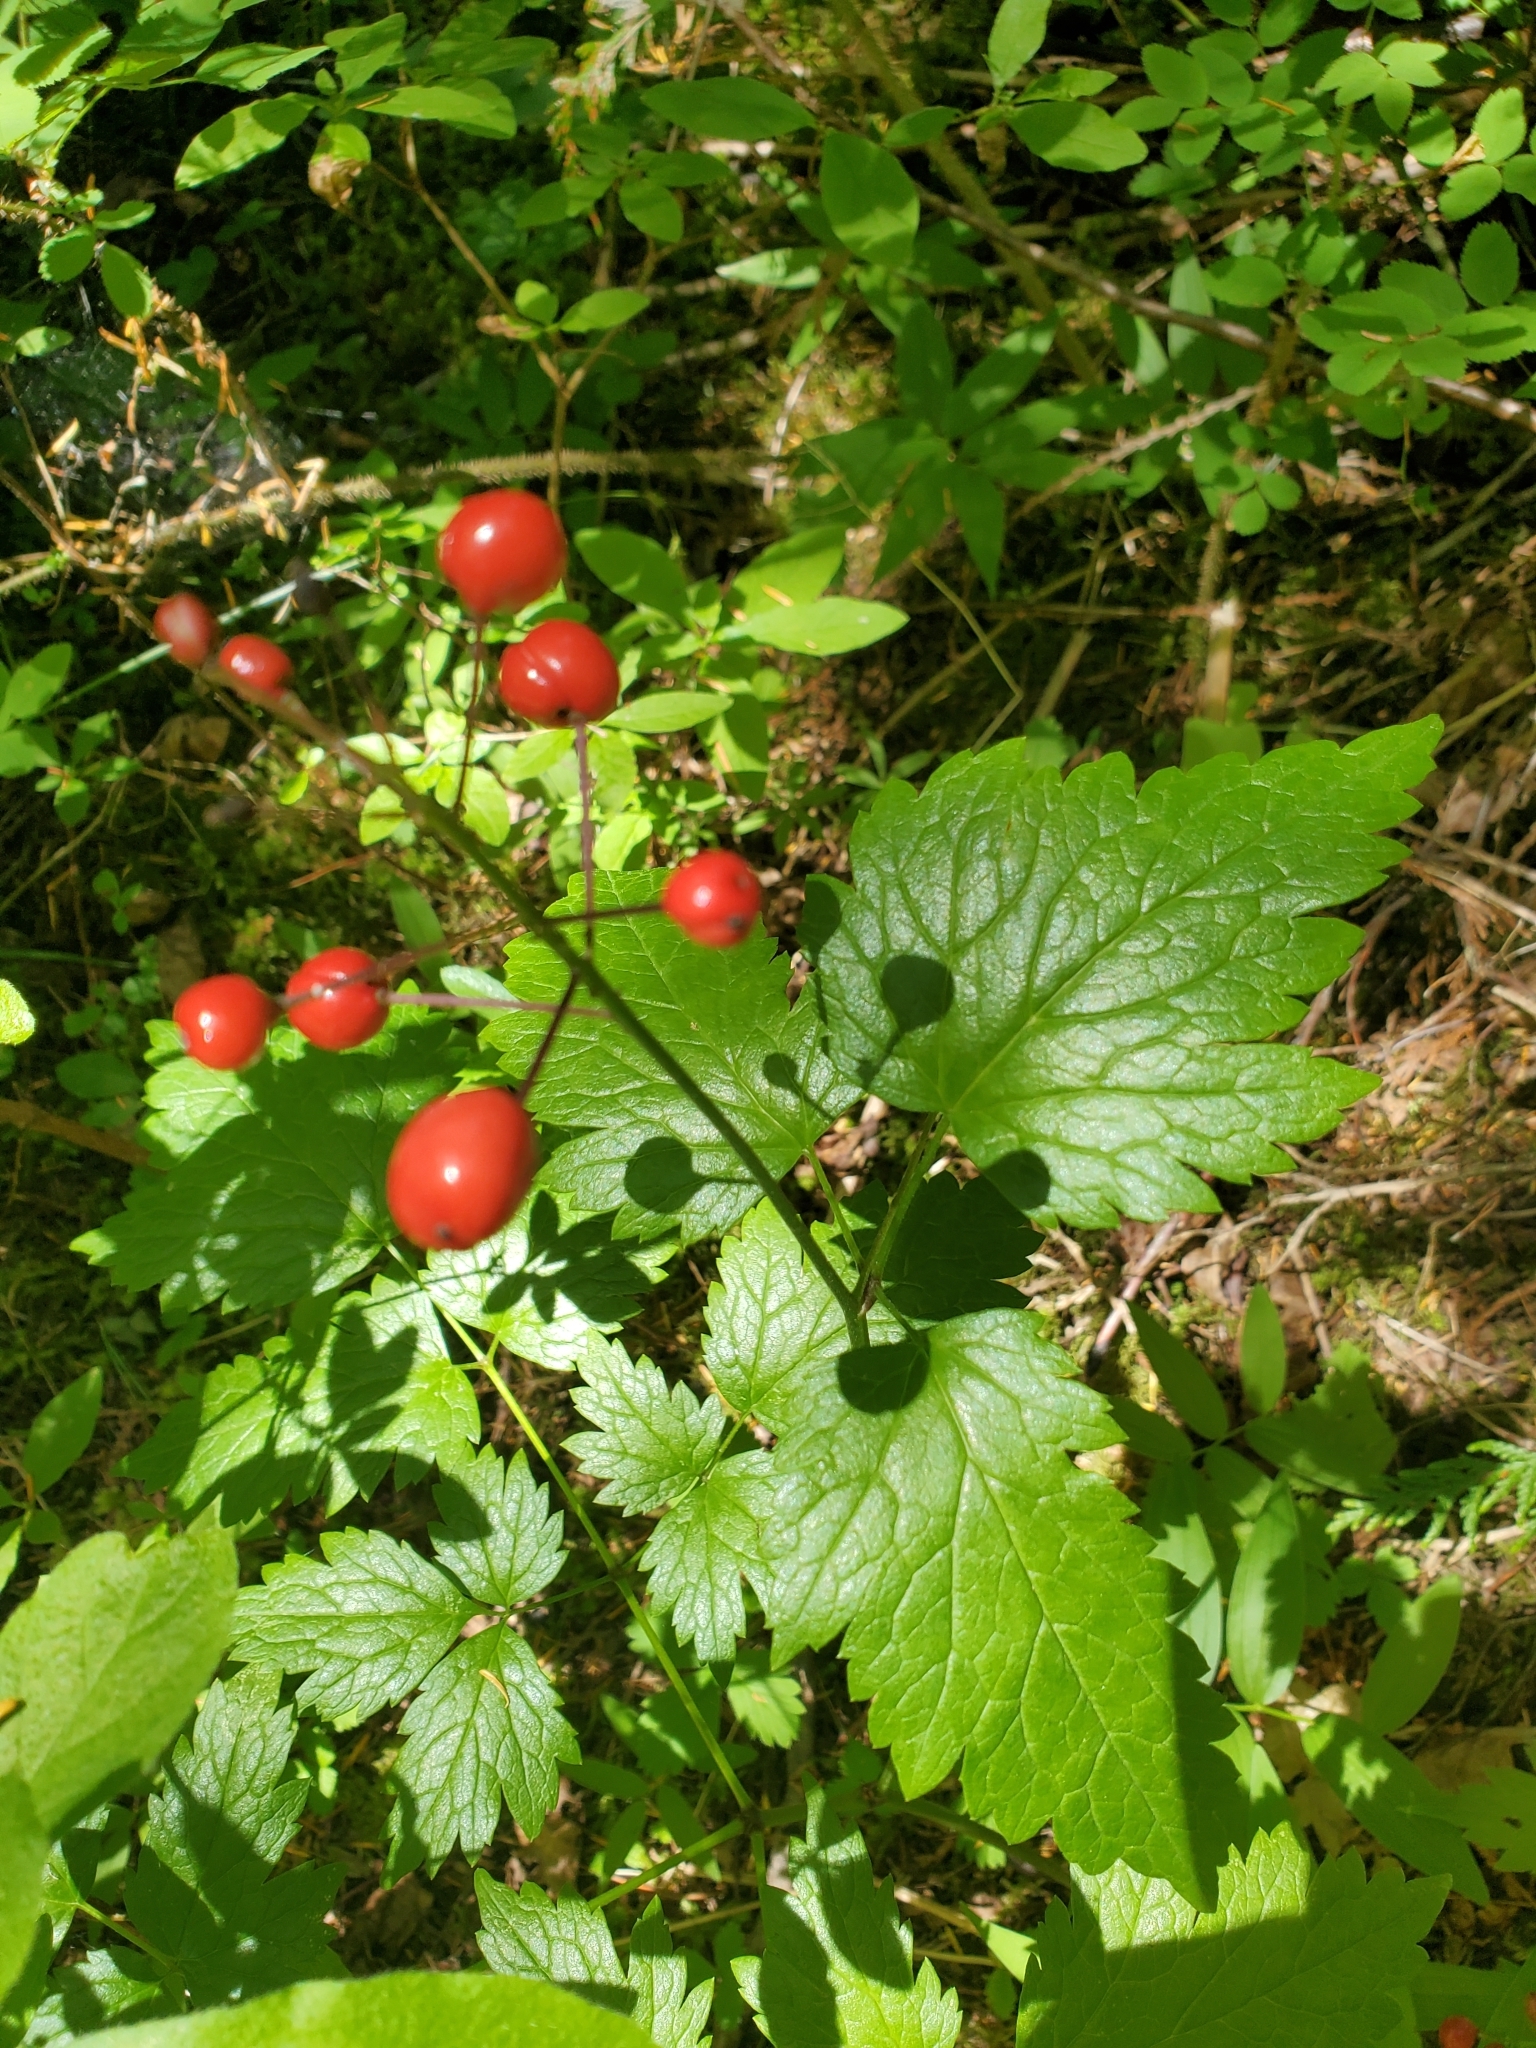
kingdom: Plantae
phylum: Tracheophyta
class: Magnoliopsida
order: Ranunculales
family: Ranunculaceae
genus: Actaea
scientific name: Actaea rubra
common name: Red baneberry
